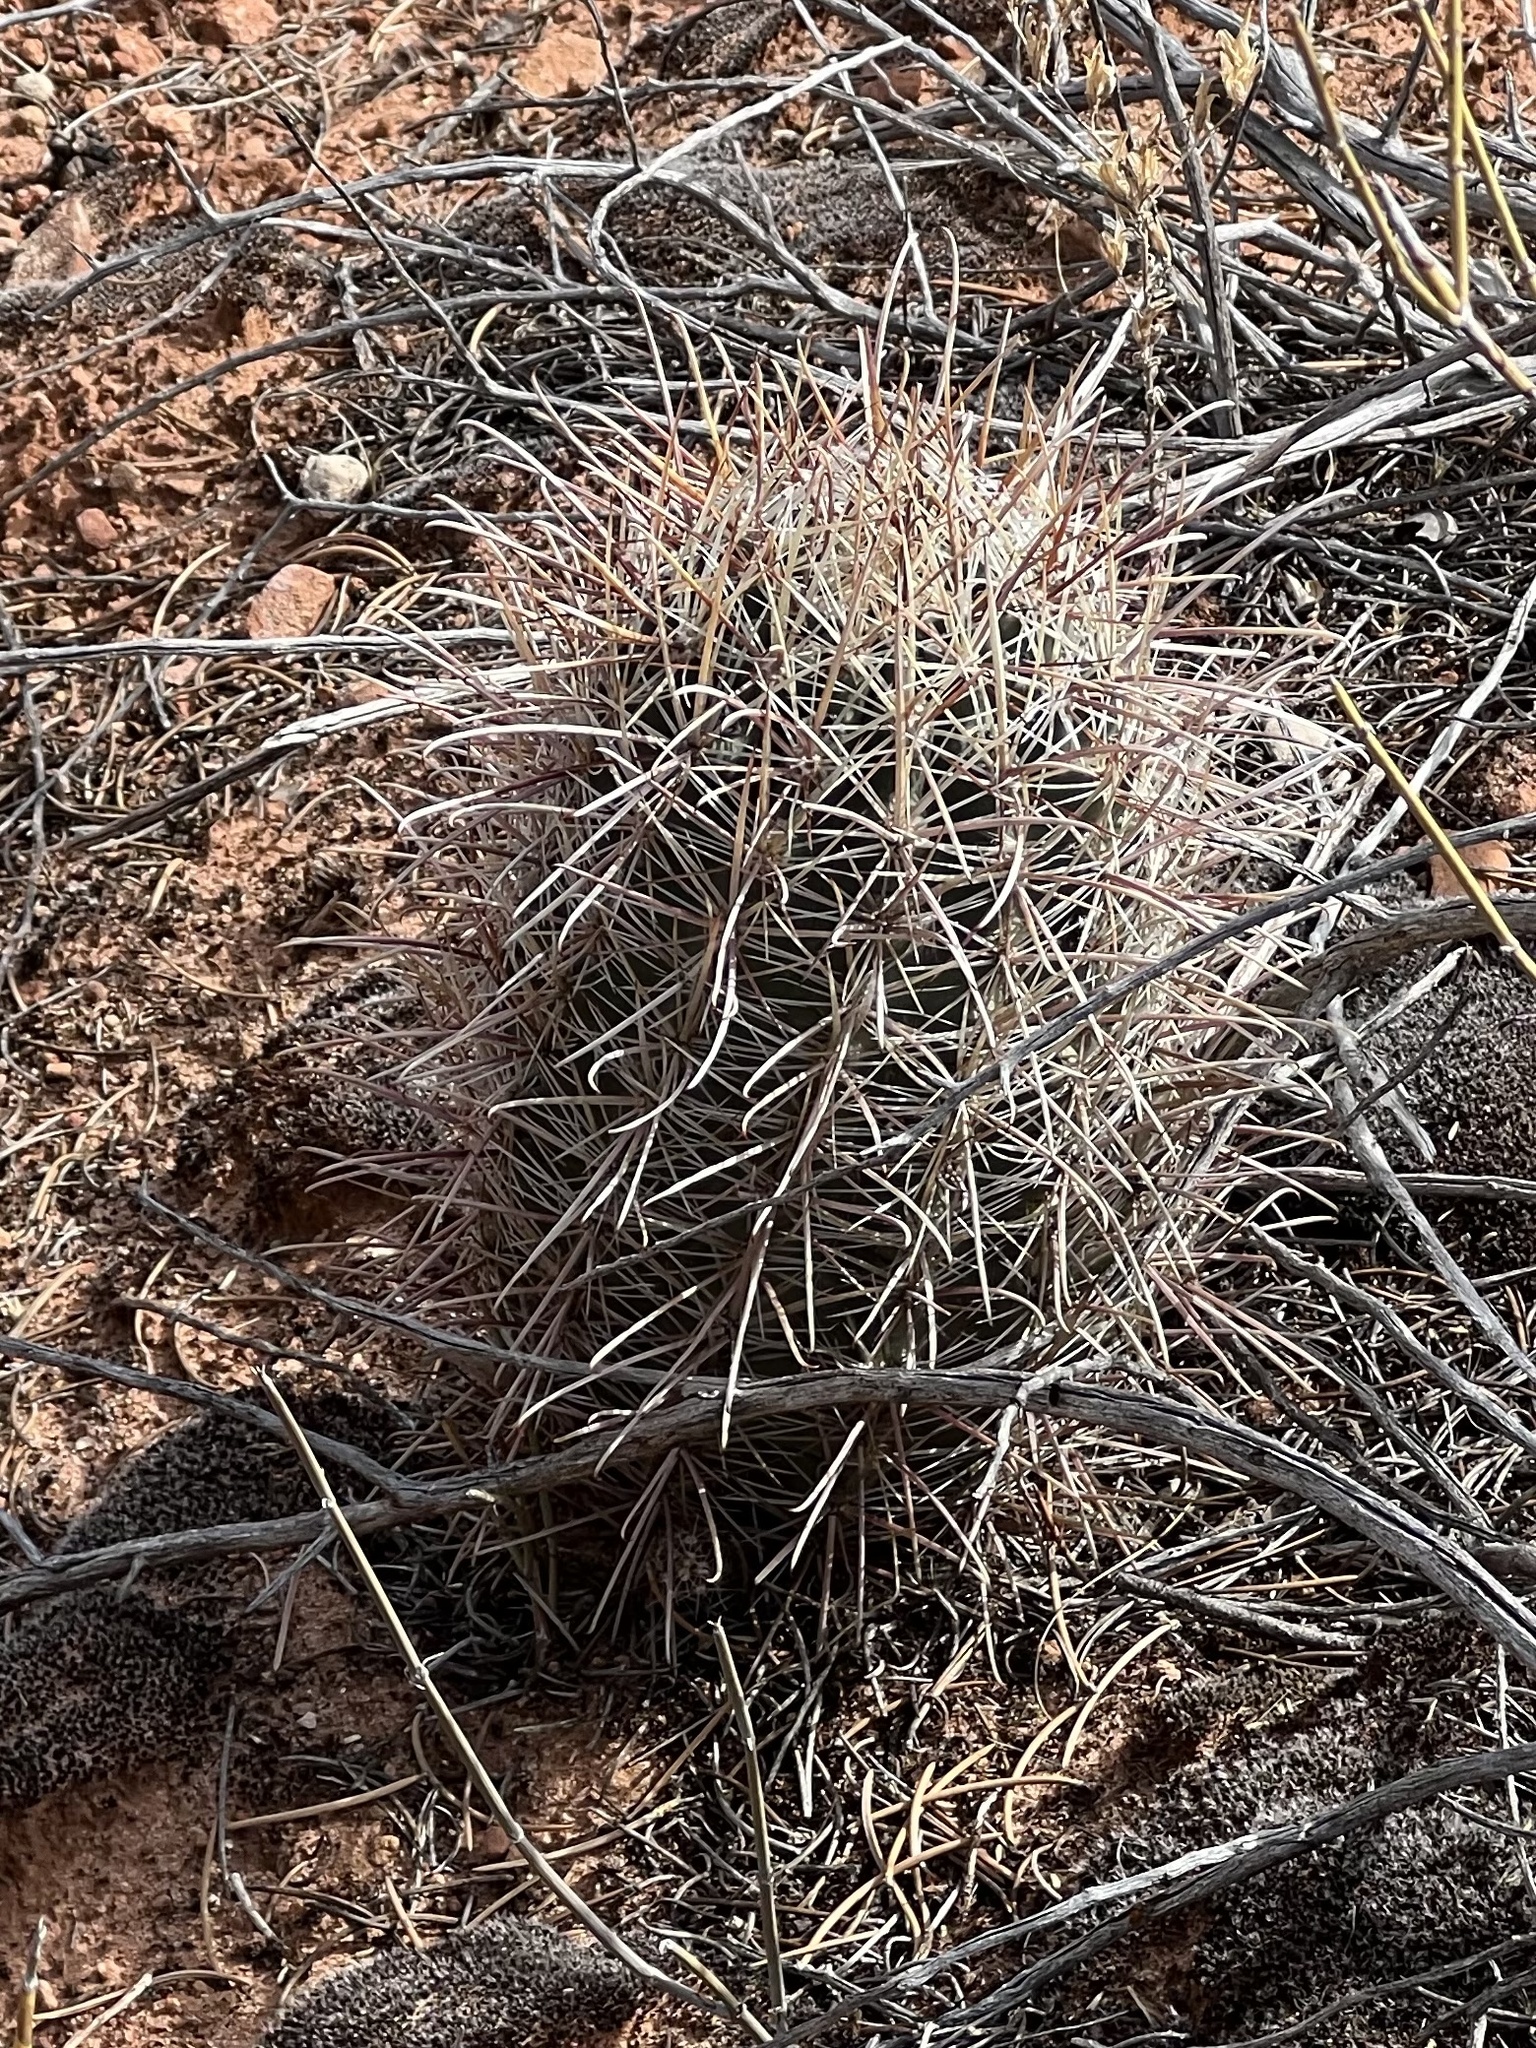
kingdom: Plantae
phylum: Tracheophyta
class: Magnoliopsida
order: Caryophyllales
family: Cactaceae
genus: Sclerocactus
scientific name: Sclerocactus parviflorus
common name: Small-flower fishhook cactus
